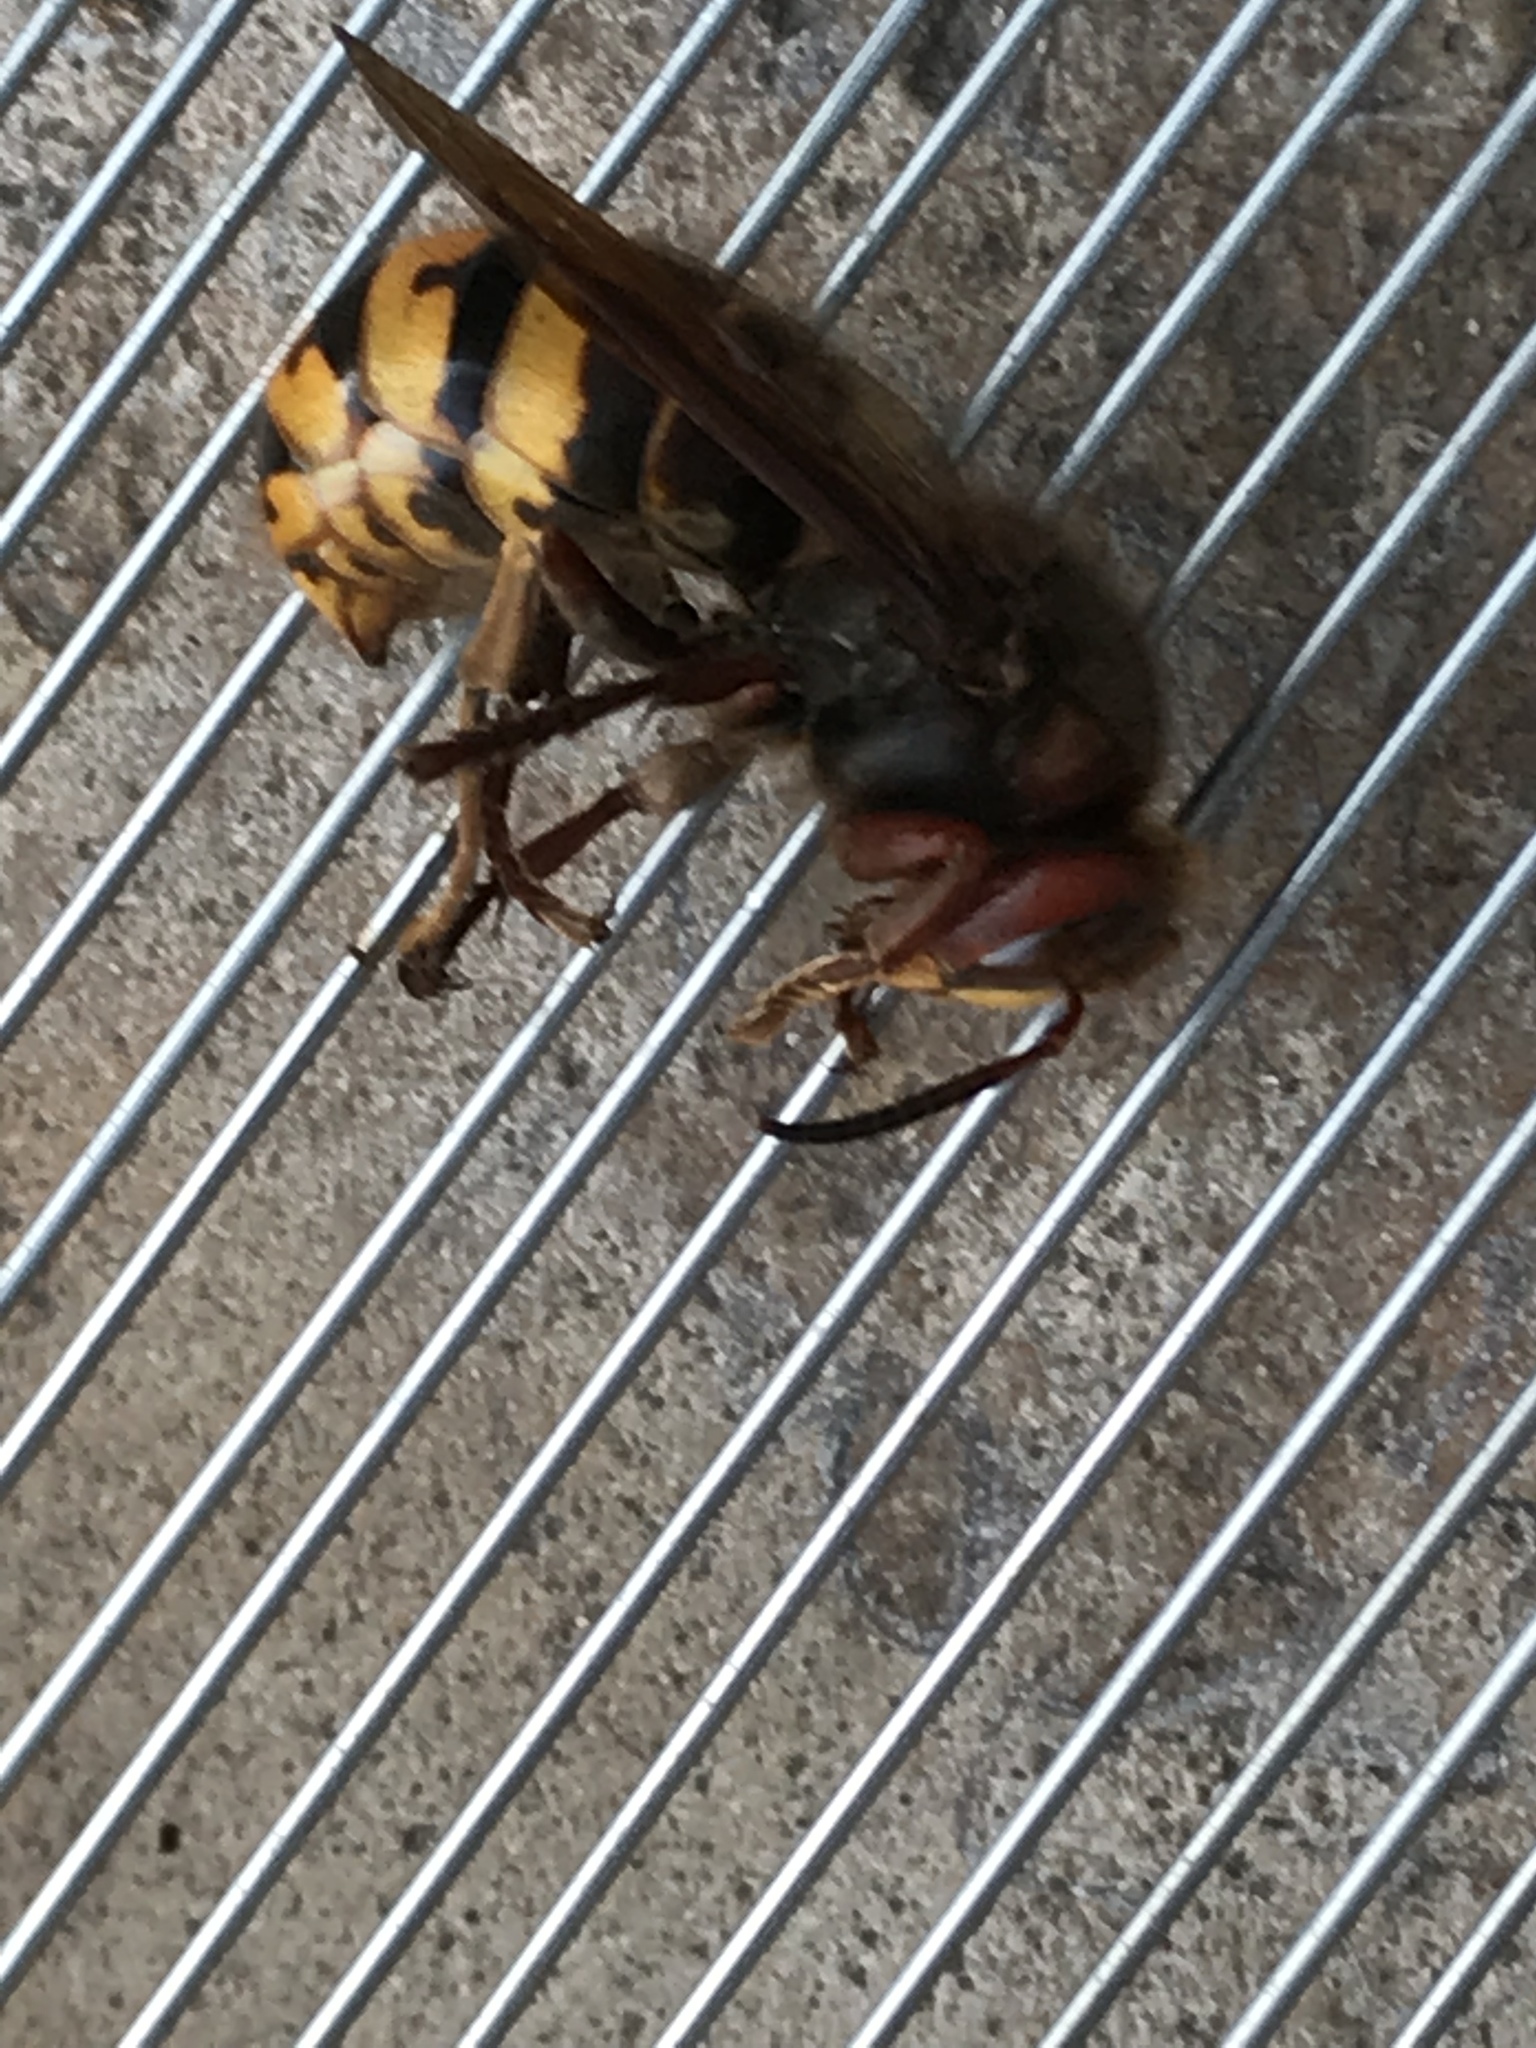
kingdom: Animalia
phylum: Arthropoda
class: Insecta
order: Hymenoptera
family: Vespidae
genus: Vespa
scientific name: Vespa crabro
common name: Hornet
